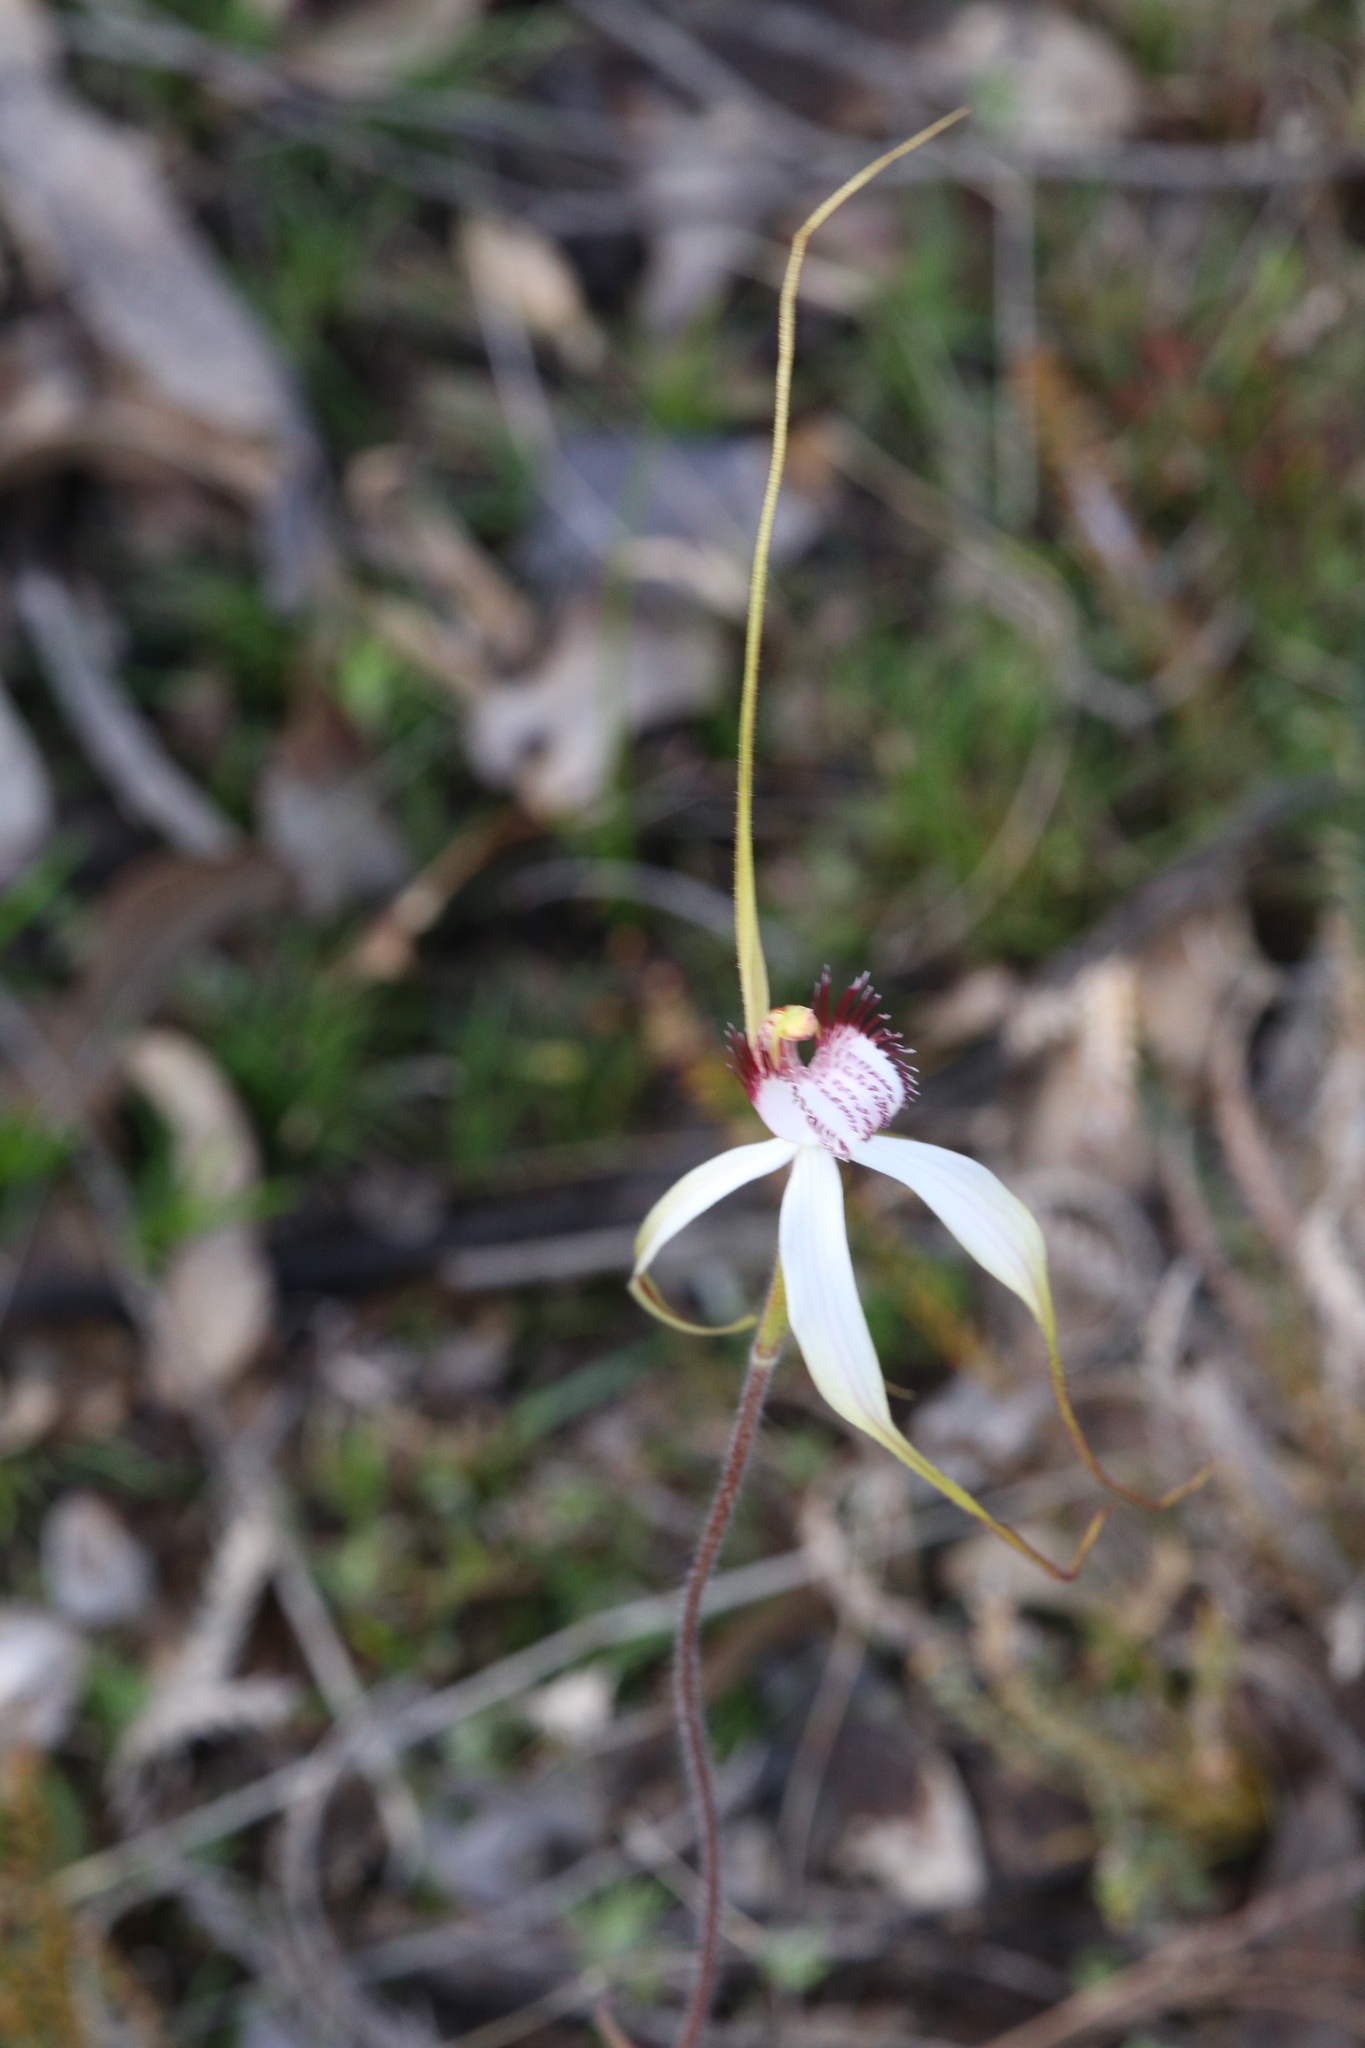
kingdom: Plantae
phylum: Tracheophyta
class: Liliopsida
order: Asparagales
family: Orchidaceae
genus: Caladenia
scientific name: Caladenia longicauda
